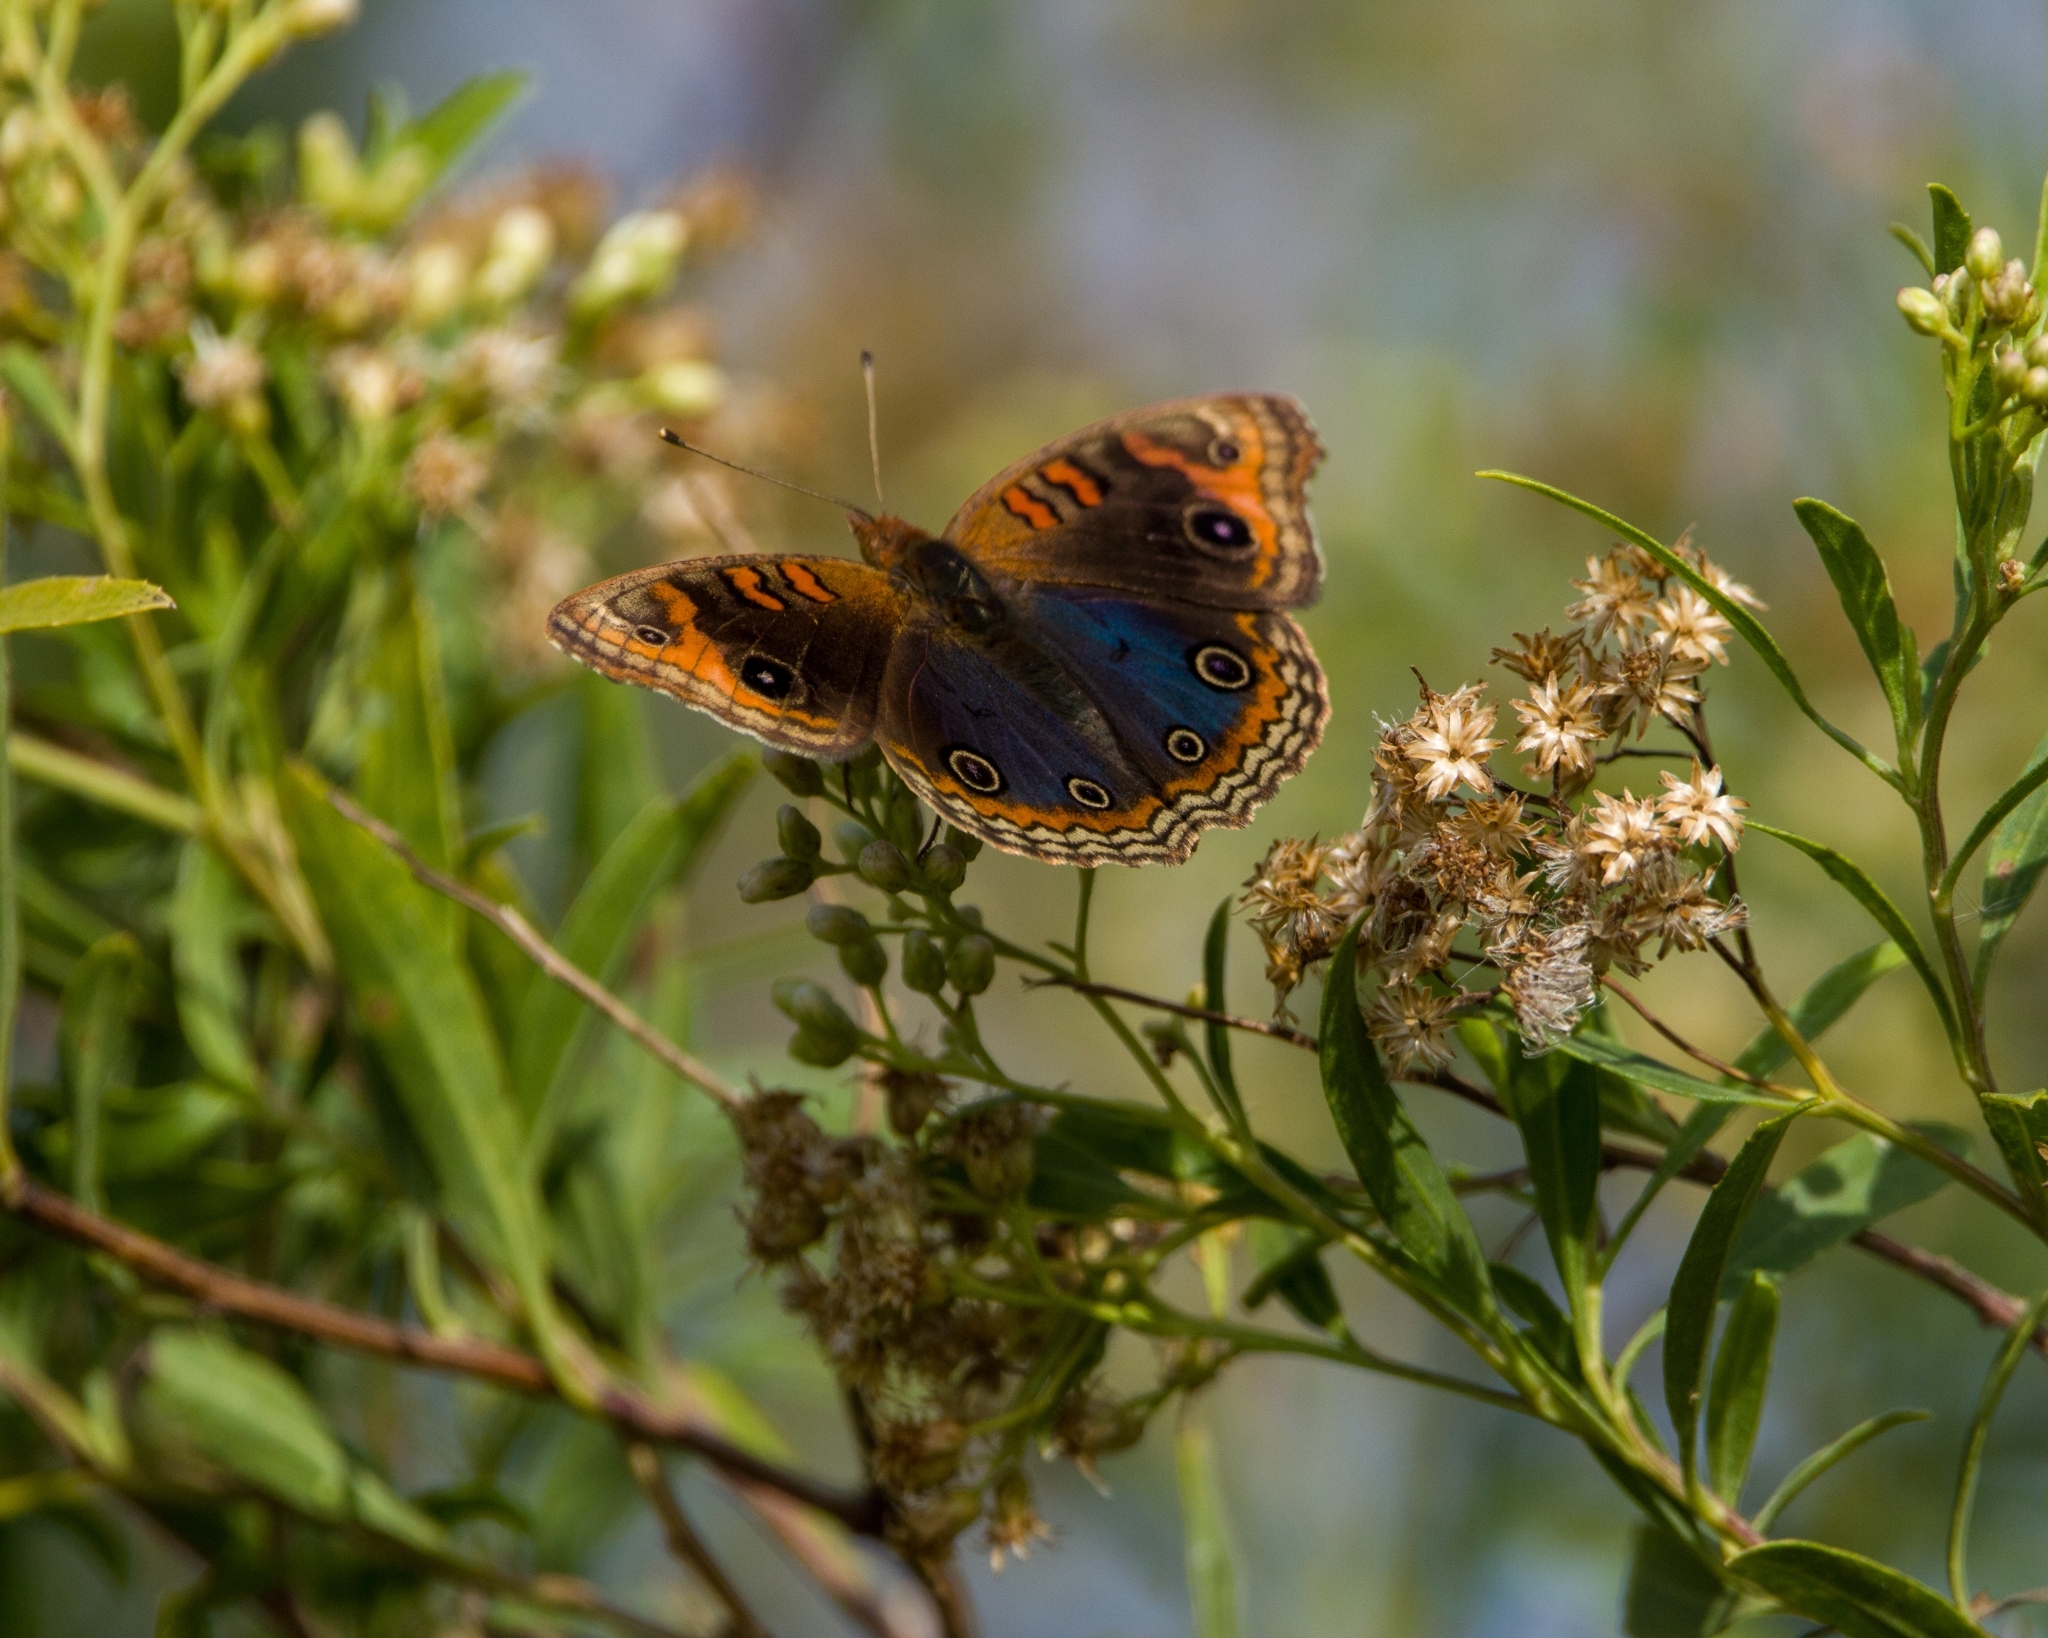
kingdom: Animalia
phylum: Arthropoda
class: Insecta
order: Lepidoptera
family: Nymphalidae
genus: Junonia
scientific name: Junonia lavinia
